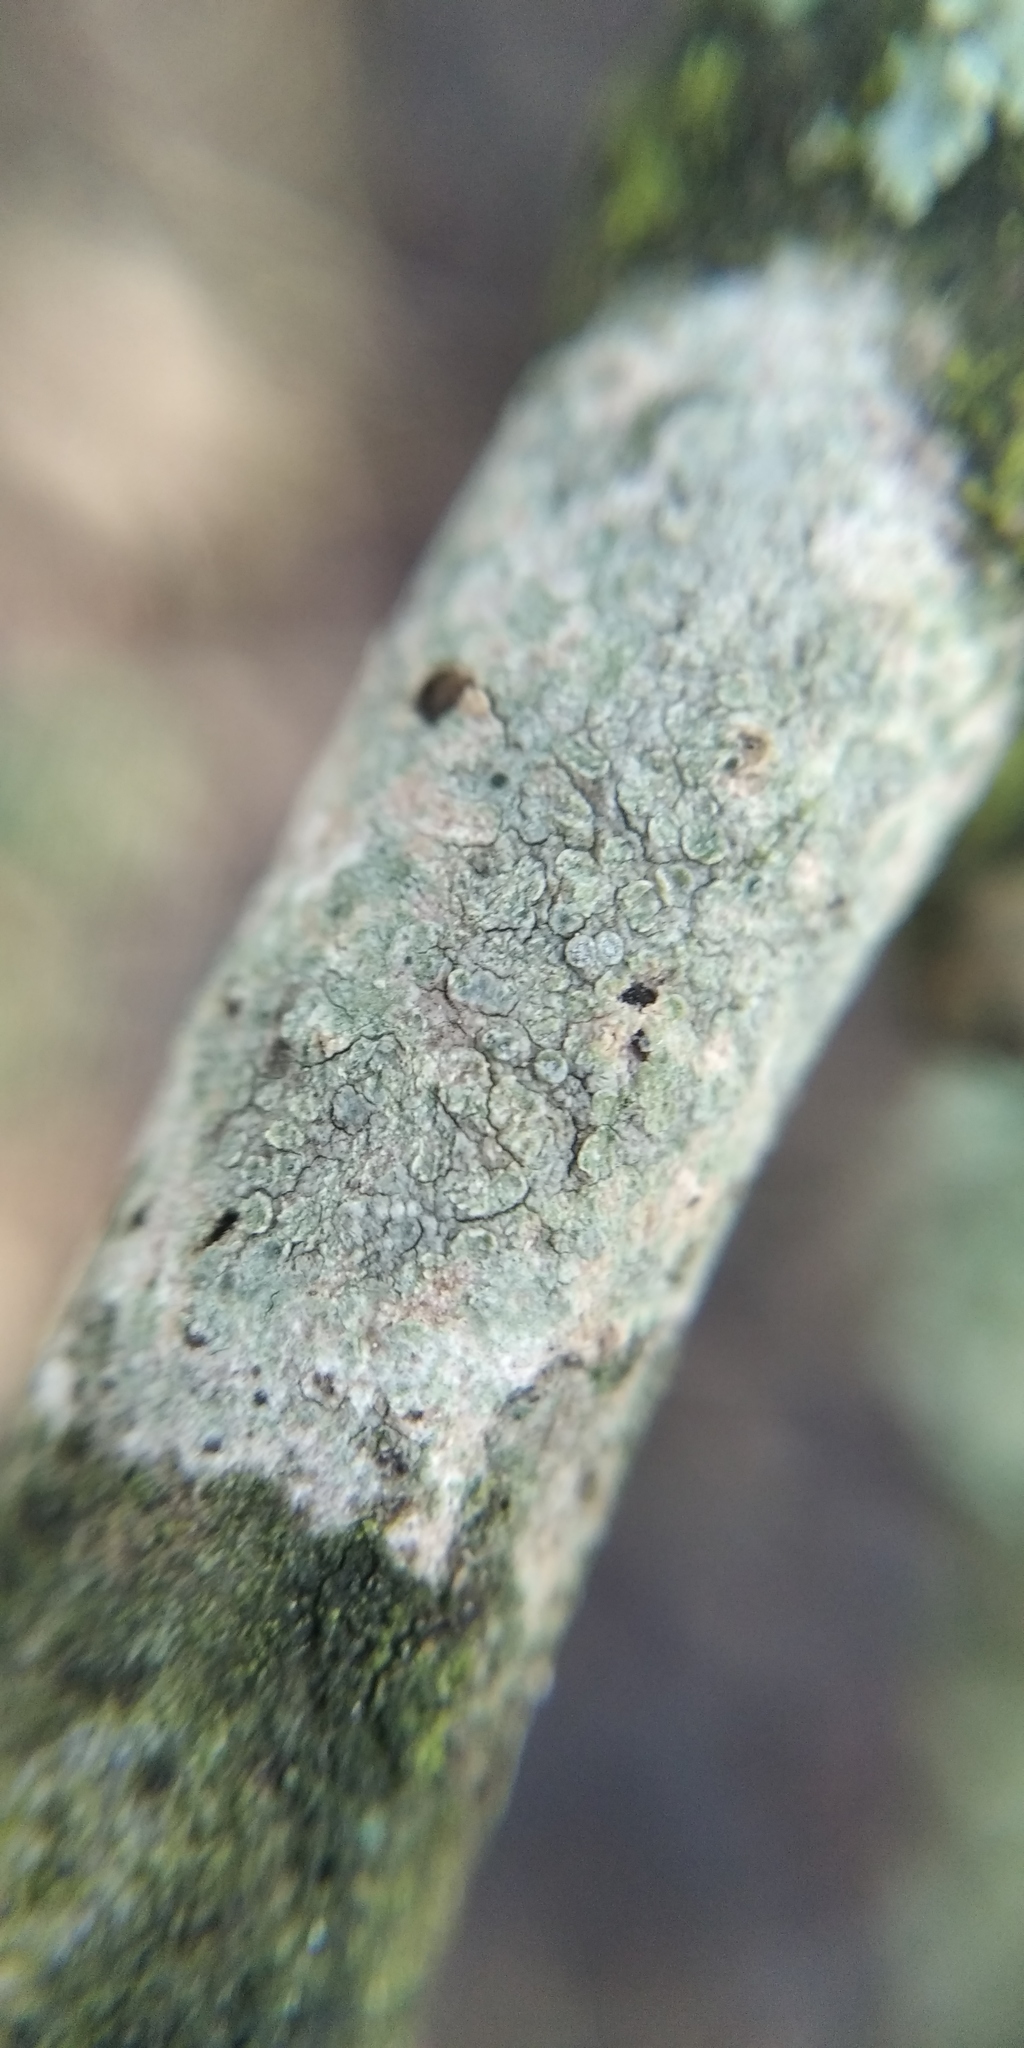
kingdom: Fungi
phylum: Ascomycota
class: Lecanoromycetes
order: Lecanorales
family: Lecanoraceae
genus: Glaucomaria
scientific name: Glaucomaria carpinea
